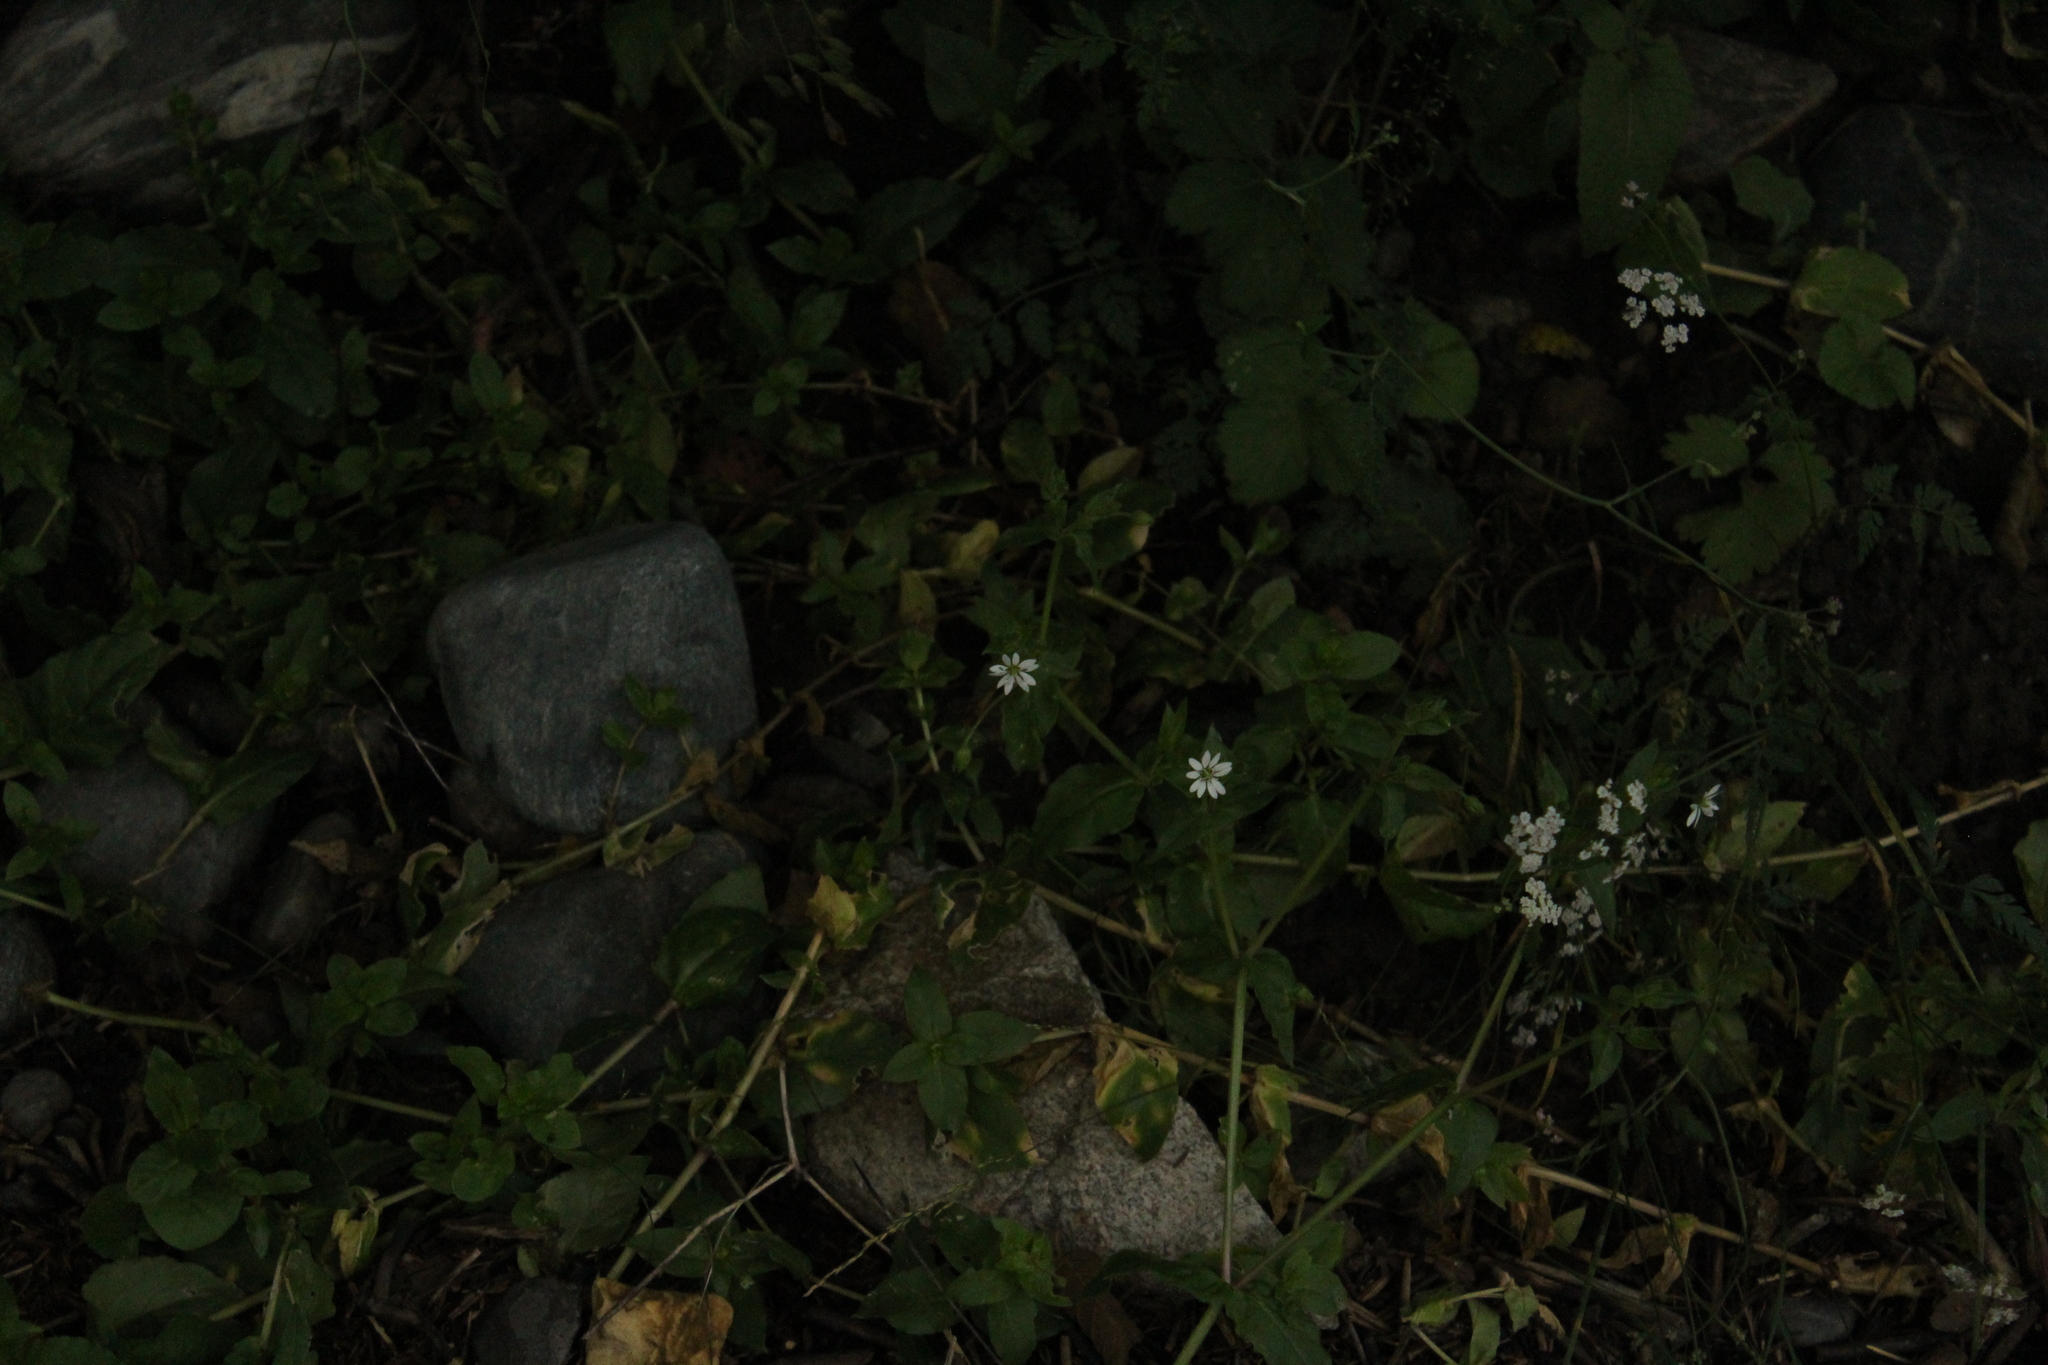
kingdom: Plantae
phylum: Tracheophyta
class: Magnoliopsida
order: Caryophyllales
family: Caryophyllaceae
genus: Stellaria
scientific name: Stellaria aquatica
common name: Water chickweed
